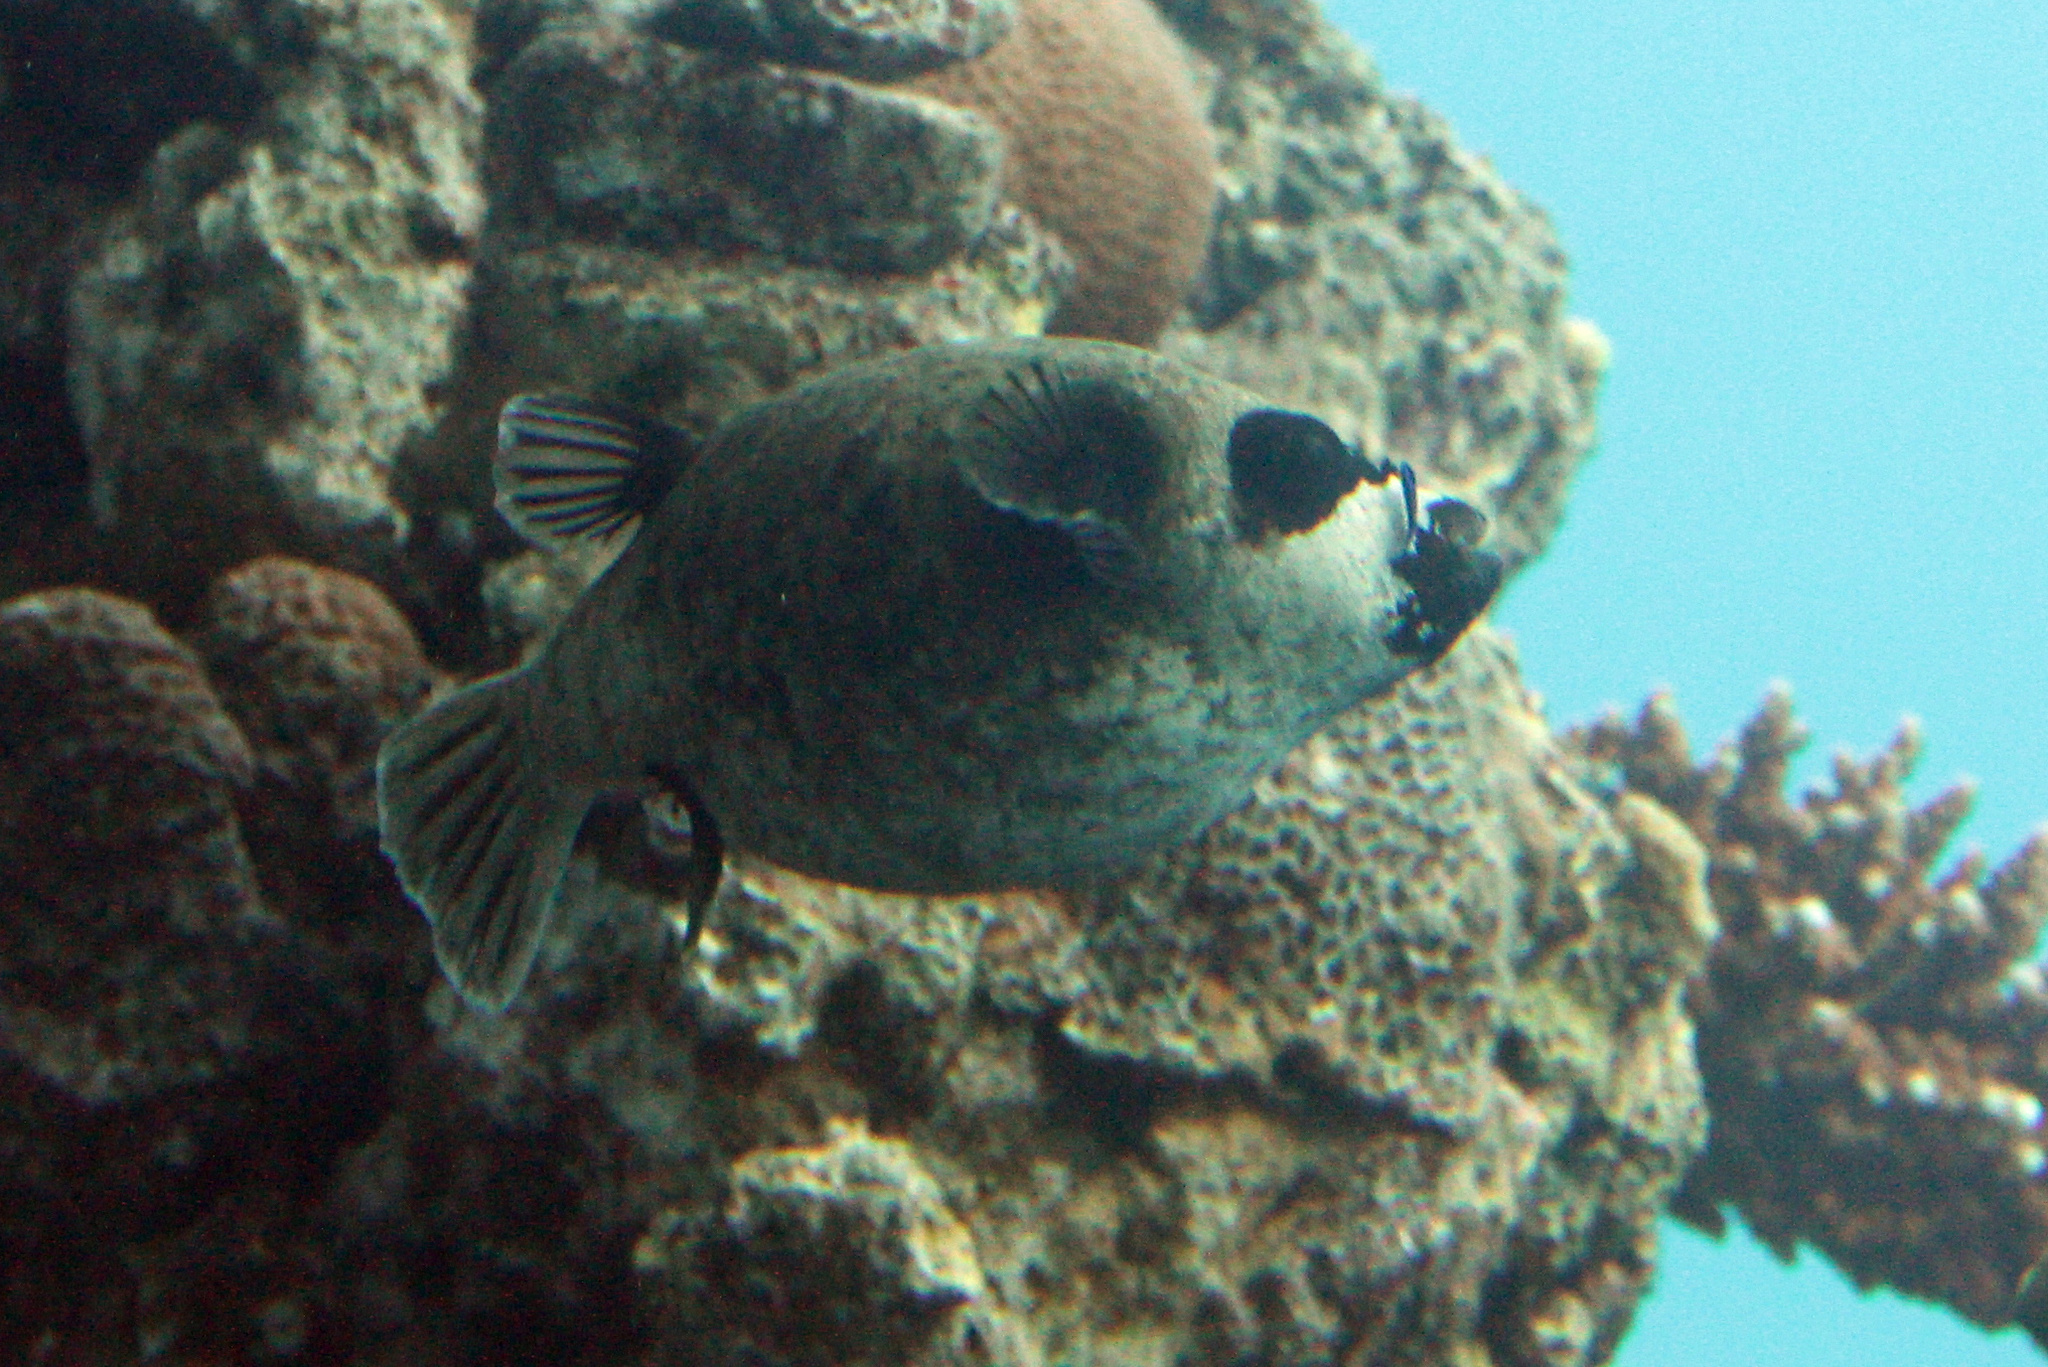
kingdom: Animalia
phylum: Chordata
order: Tetraodontiformes
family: Tetraodontidae
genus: Arothron
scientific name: Arothron diadematus
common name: Masked puffer
